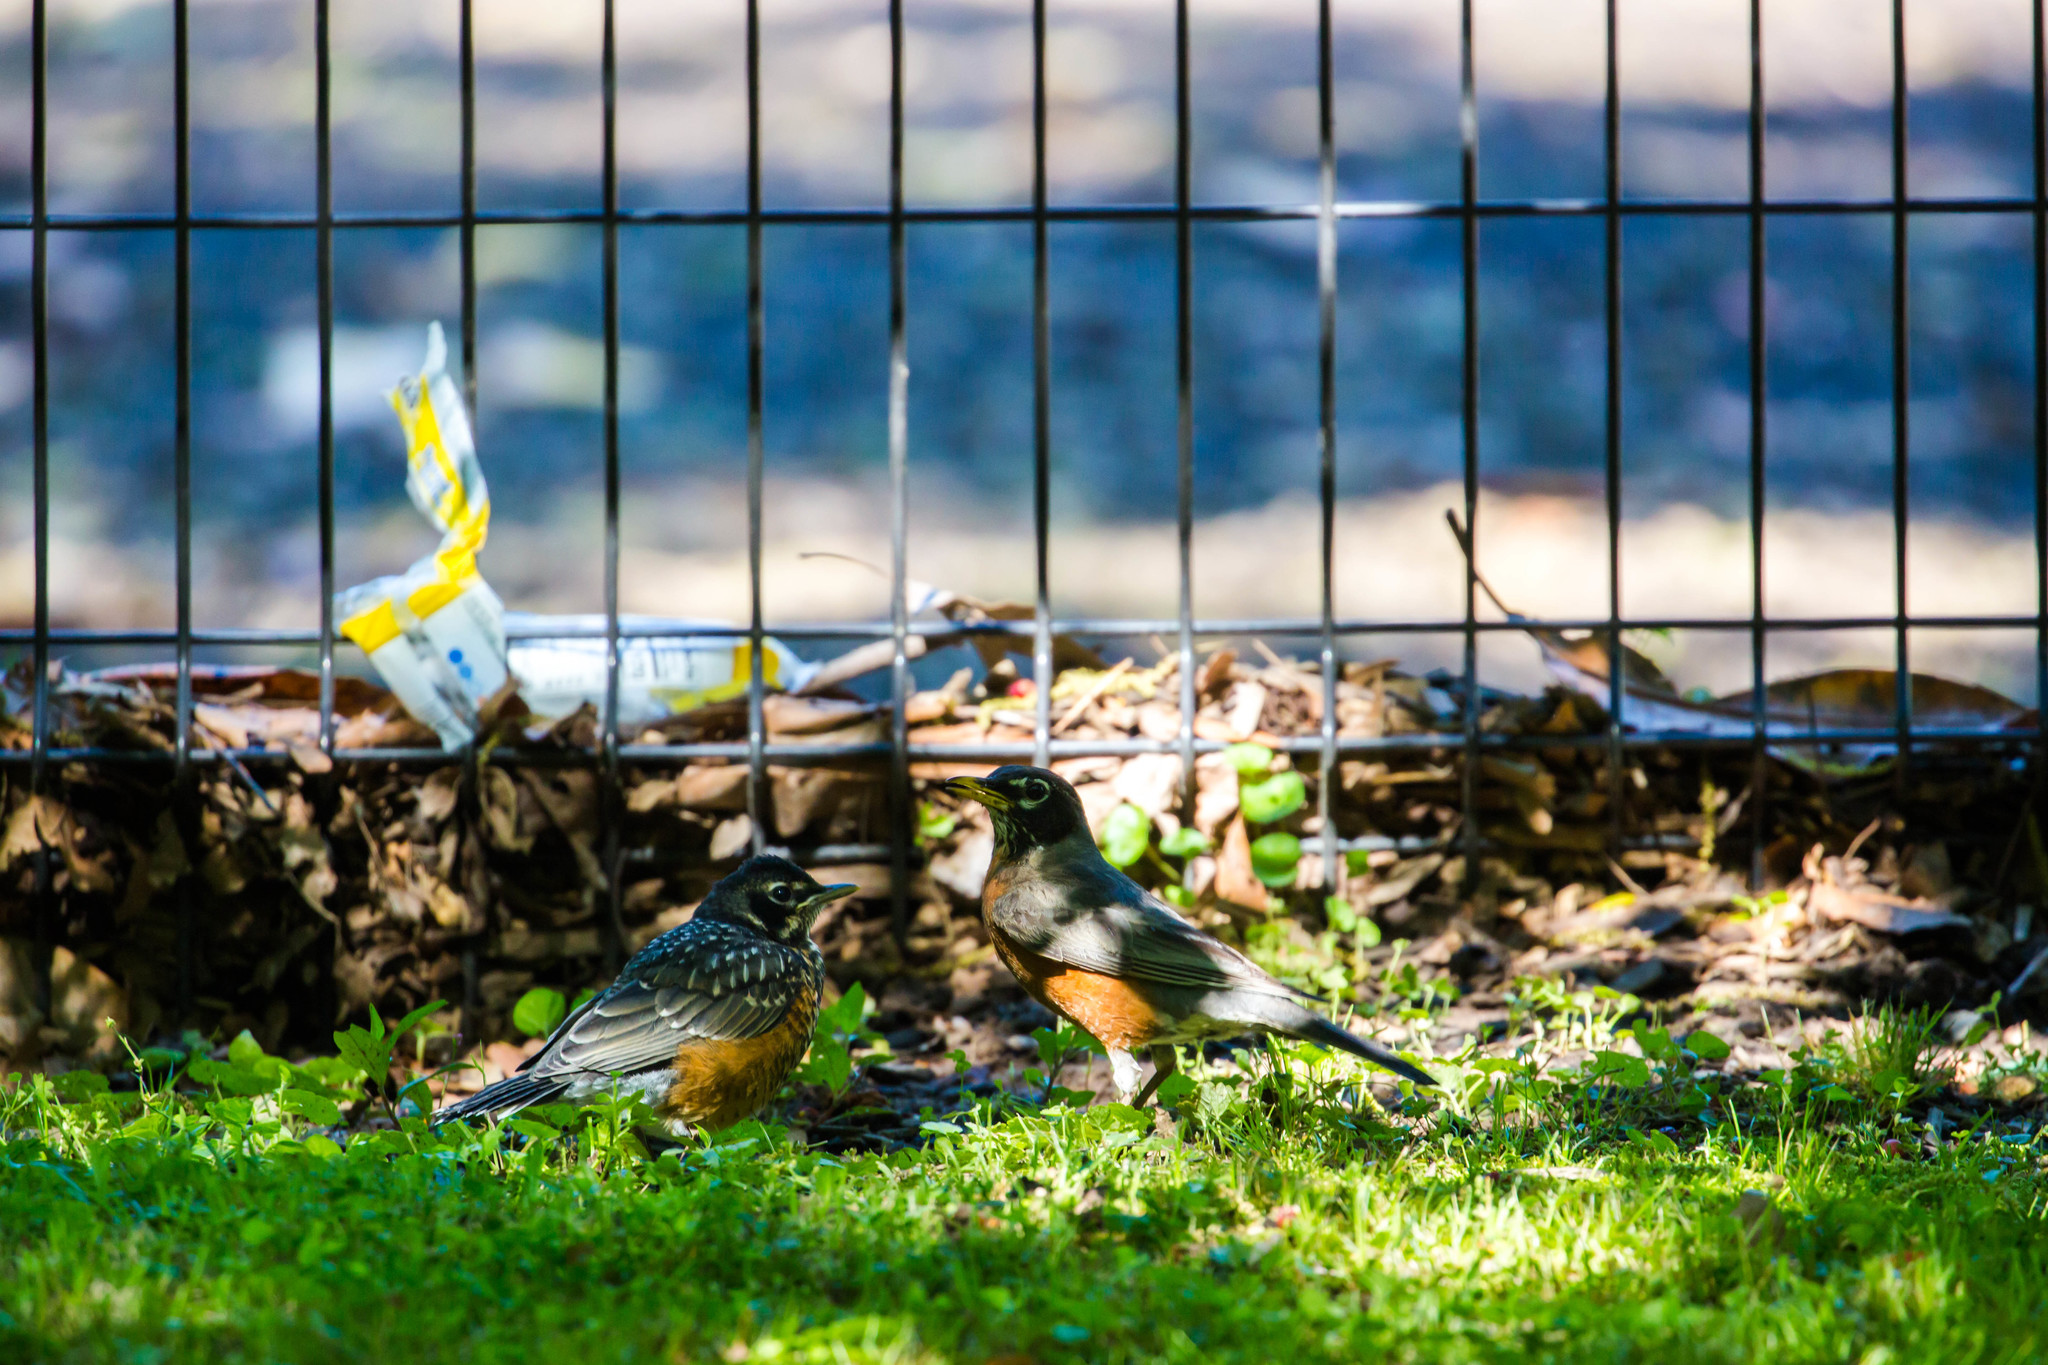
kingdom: Animalia
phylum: Chordata
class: Aves
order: Passeriformes
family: Turdidae
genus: Turdus
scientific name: Turdus migratorius
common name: American robin
